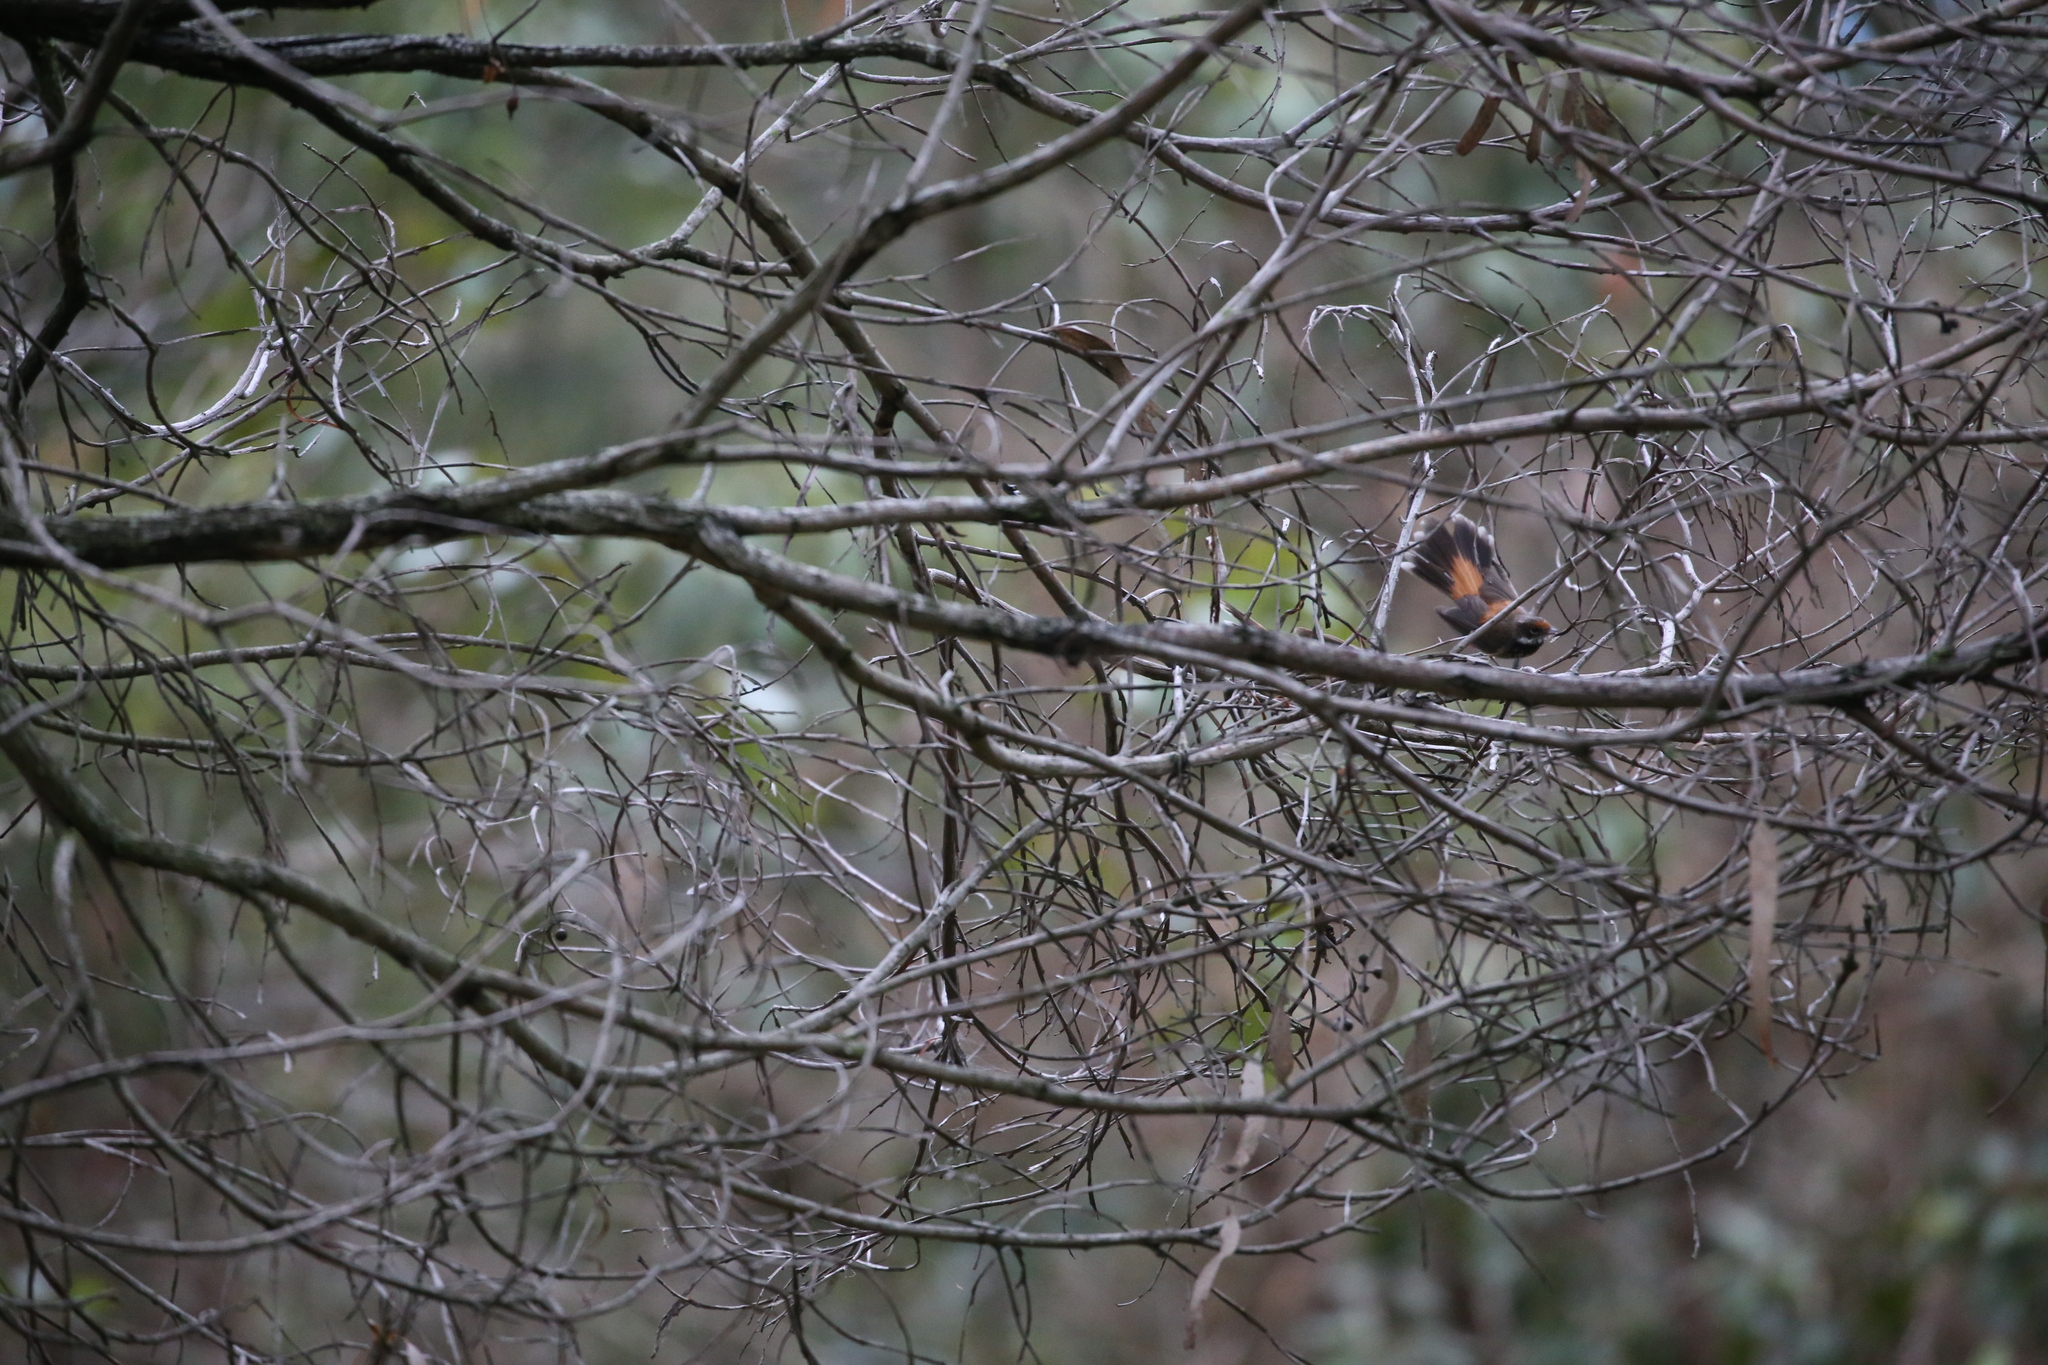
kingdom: Animalia
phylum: Chordata
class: Aves
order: Passeriformes
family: Rhipiduridae
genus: Rhipidura
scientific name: Rhipidura rufifrons
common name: Rufous fantail
